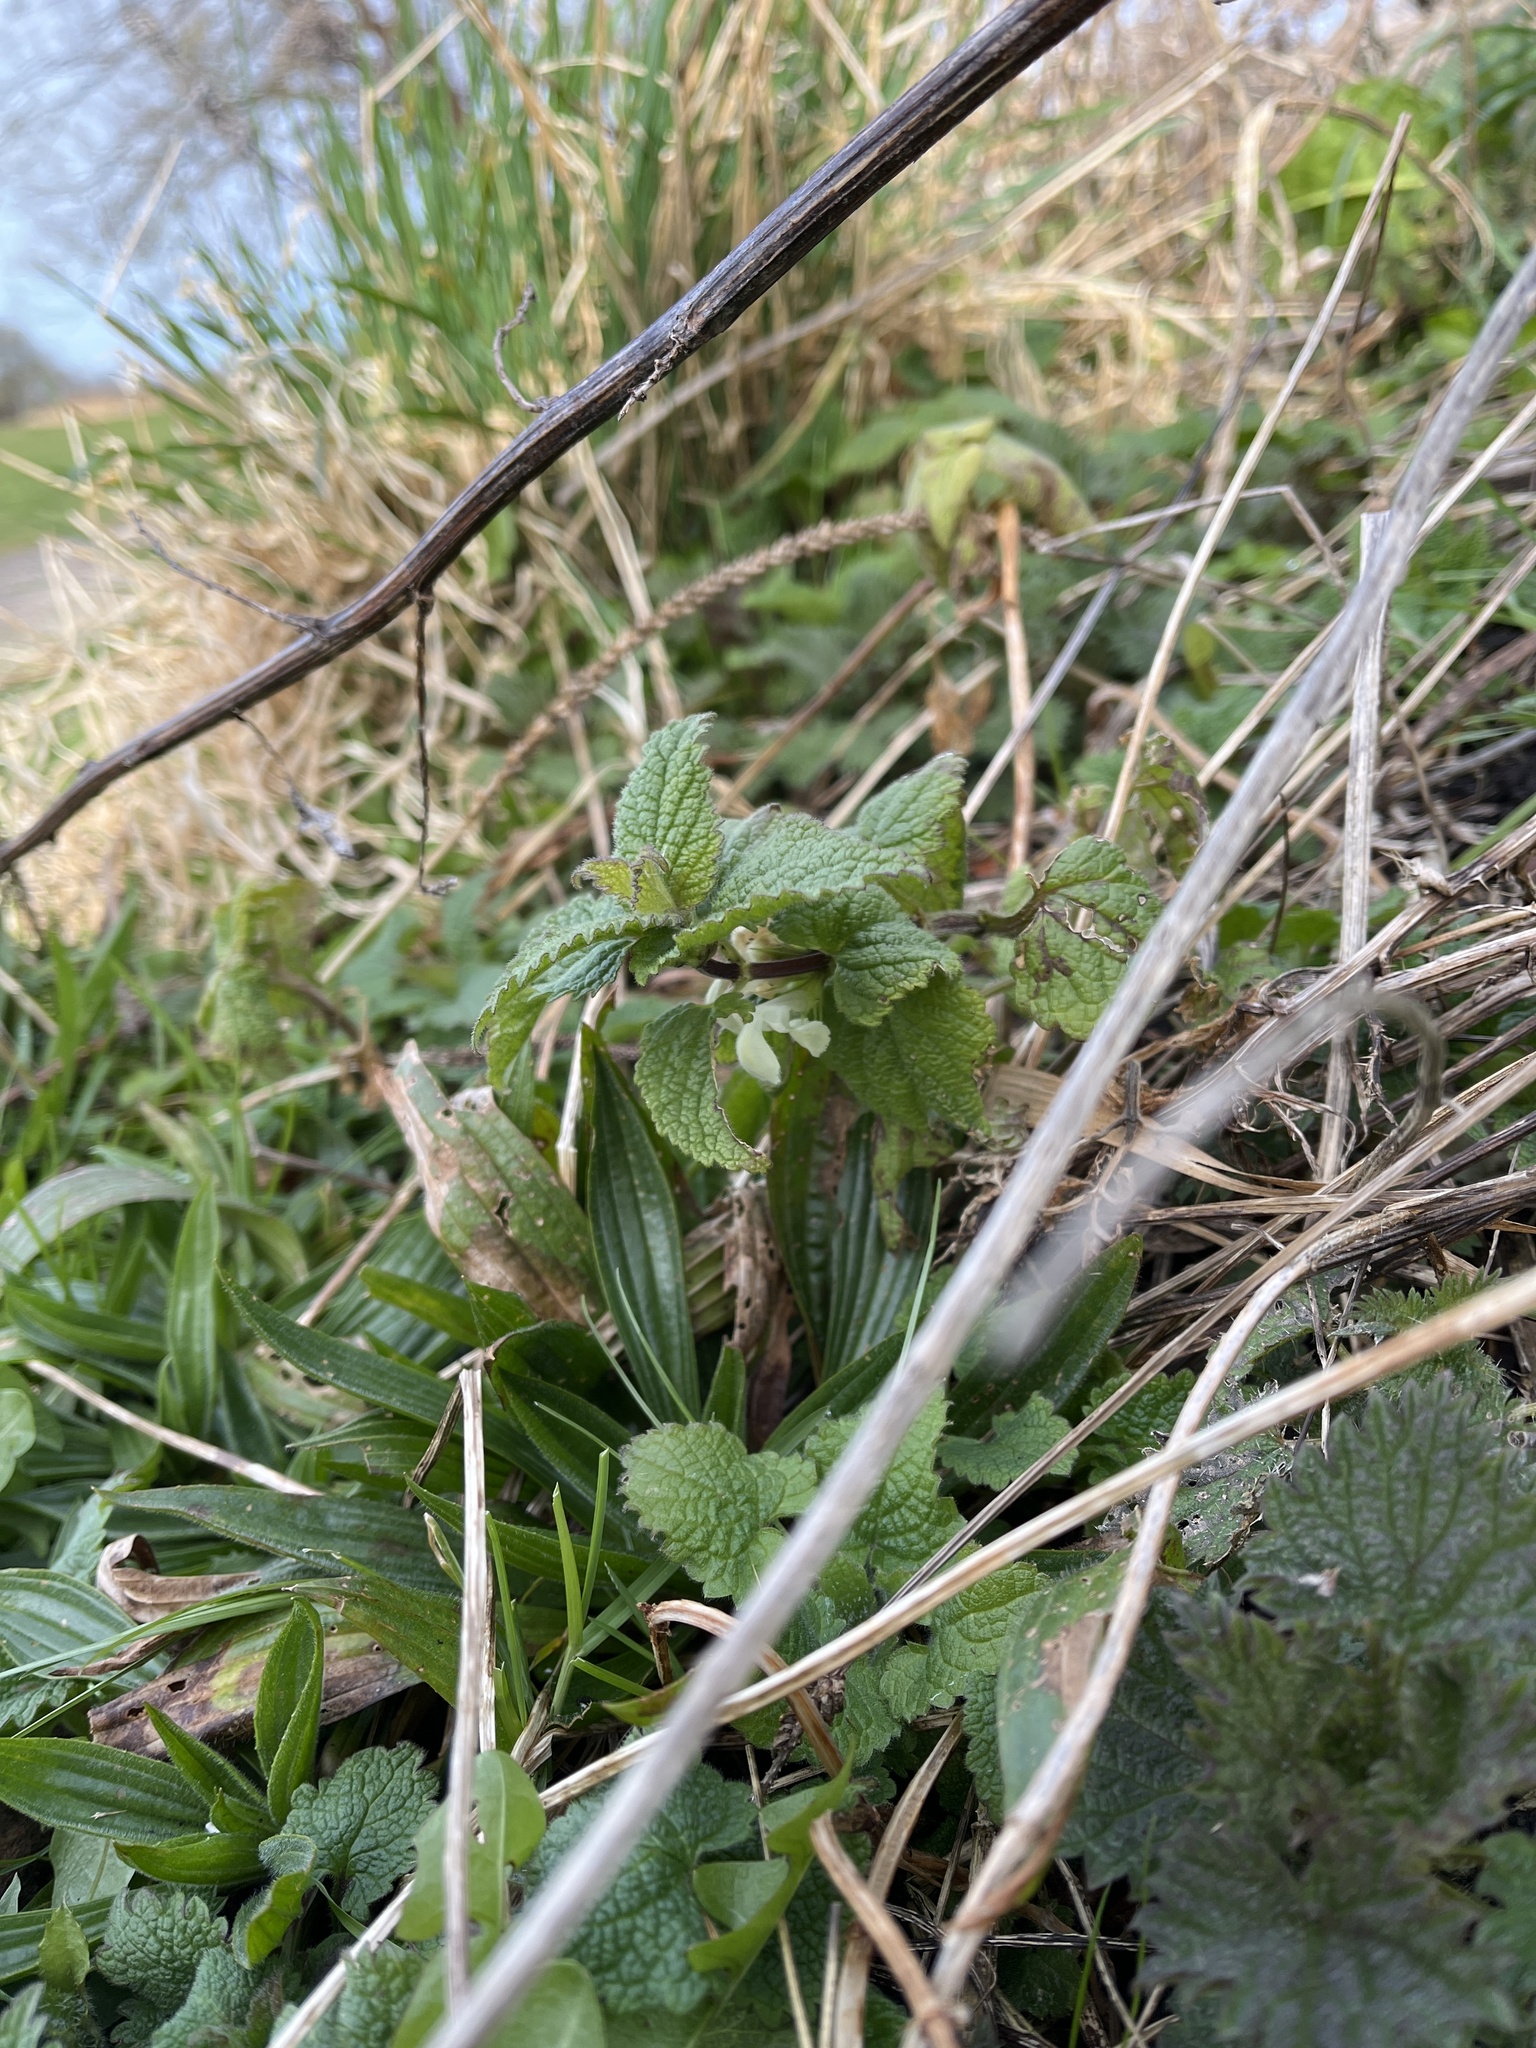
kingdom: Plantae
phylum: Tracheophyta
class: Magnoliopsida
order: Lamiales
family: Lamiaceae
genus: Lamium
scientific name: Lamium album
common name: White dead-nettle
